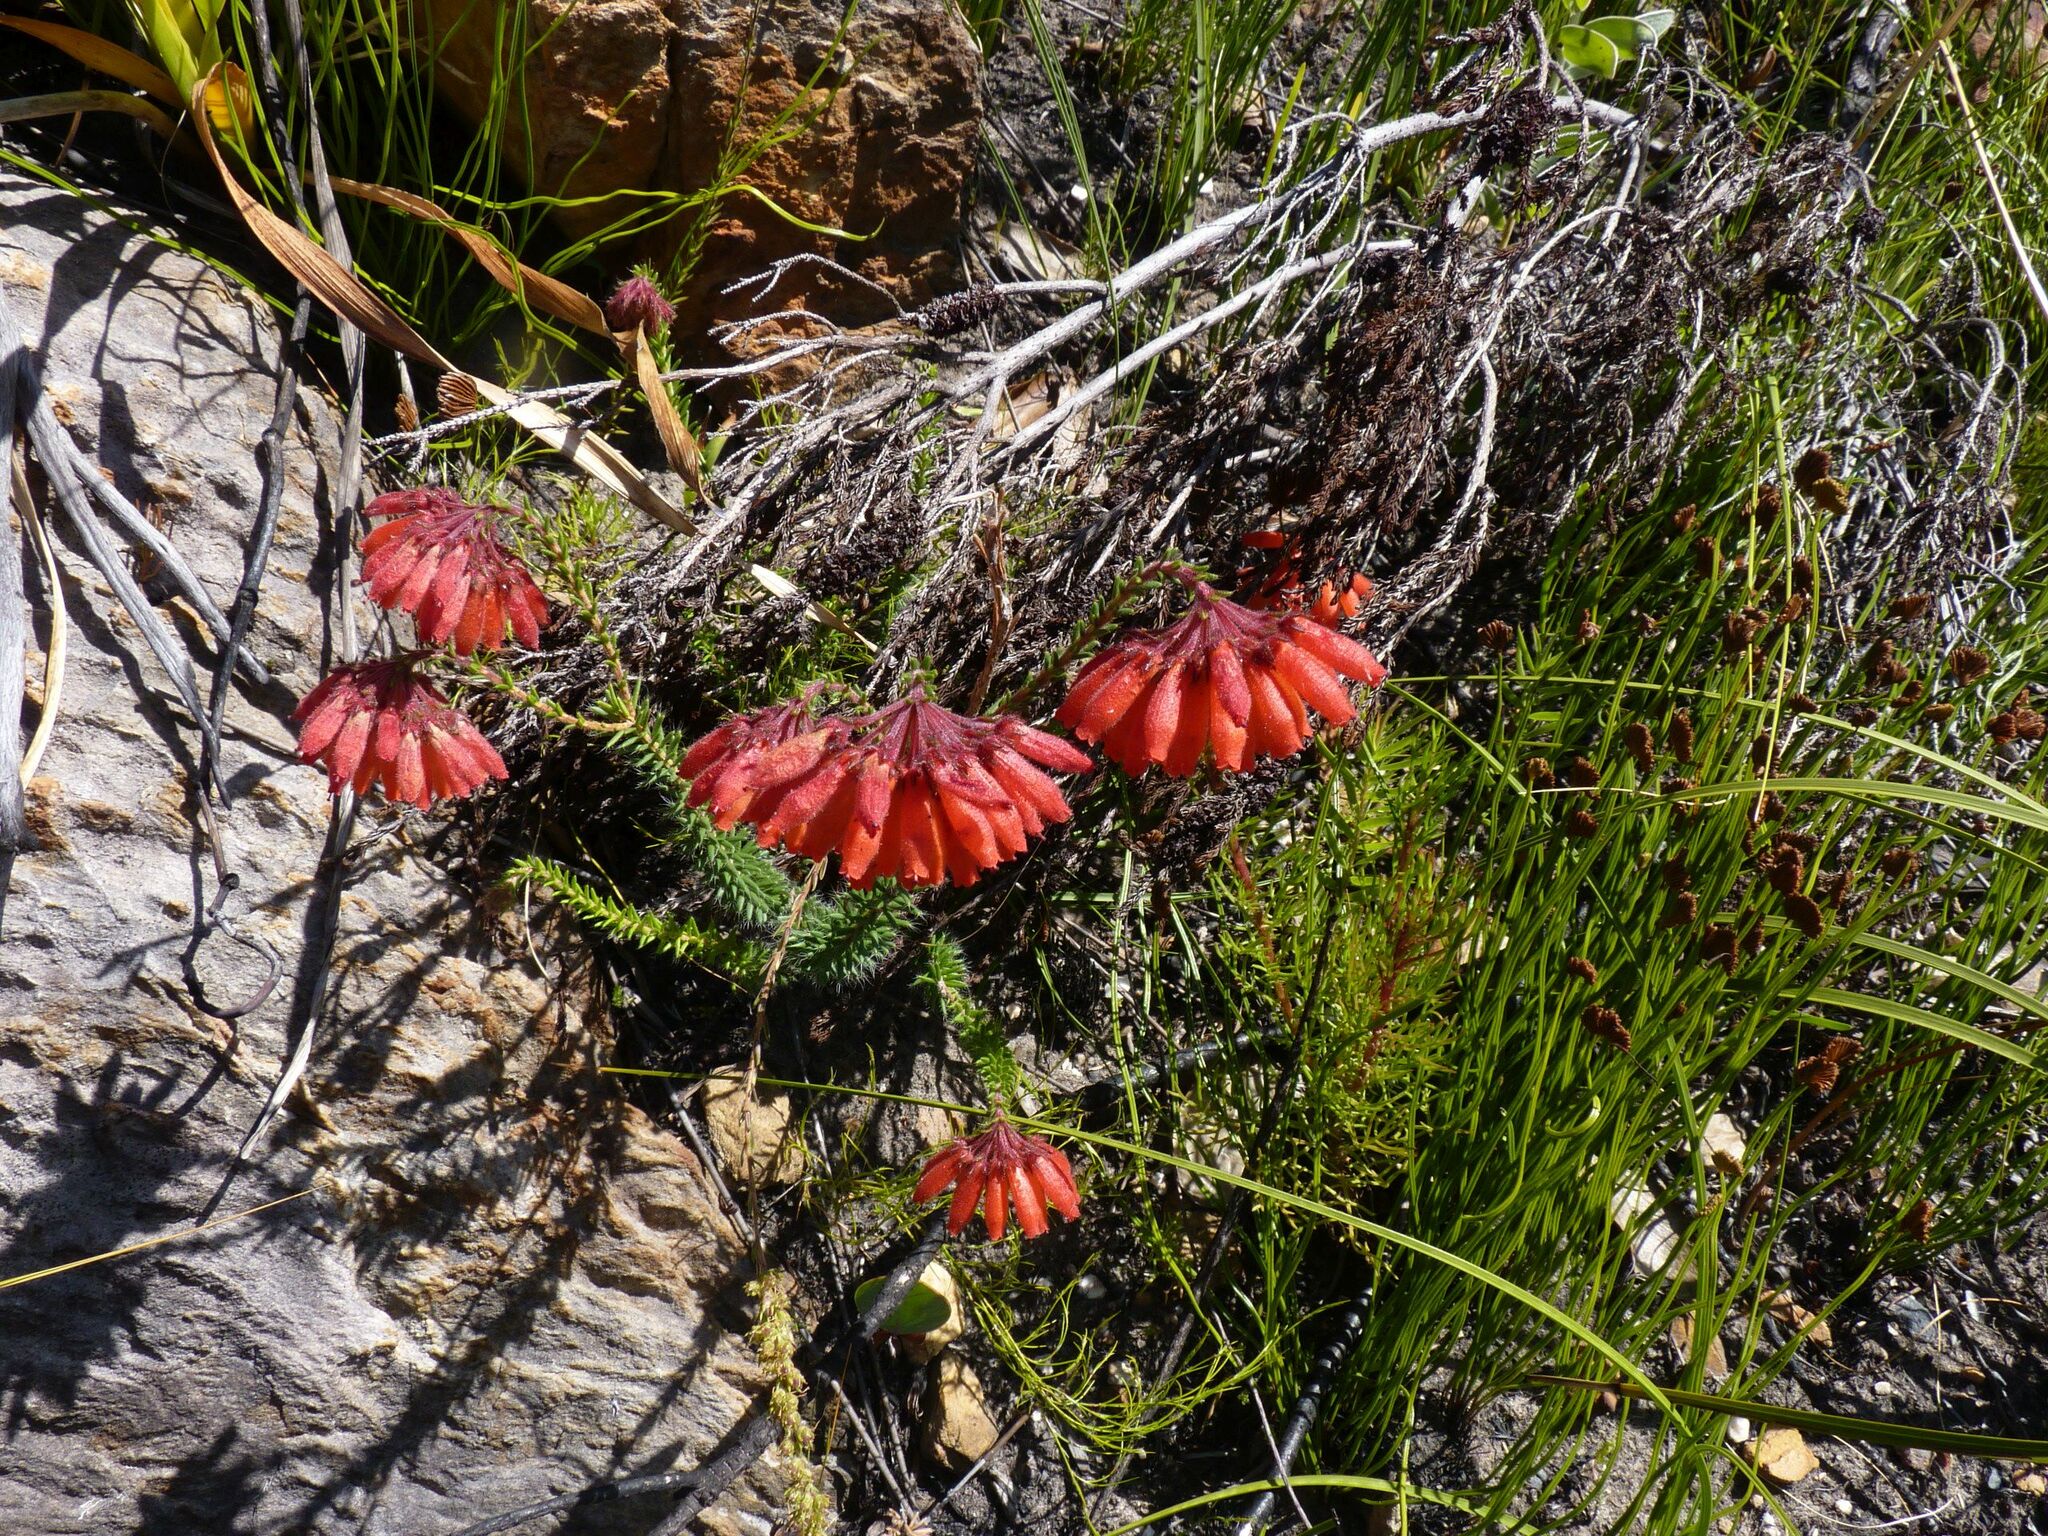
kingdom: Plantae
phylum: Tracheophyta
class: Magnoliopsida
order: Ericales
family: Ericaceae
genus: Erica
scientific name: Erica cerinthoides
